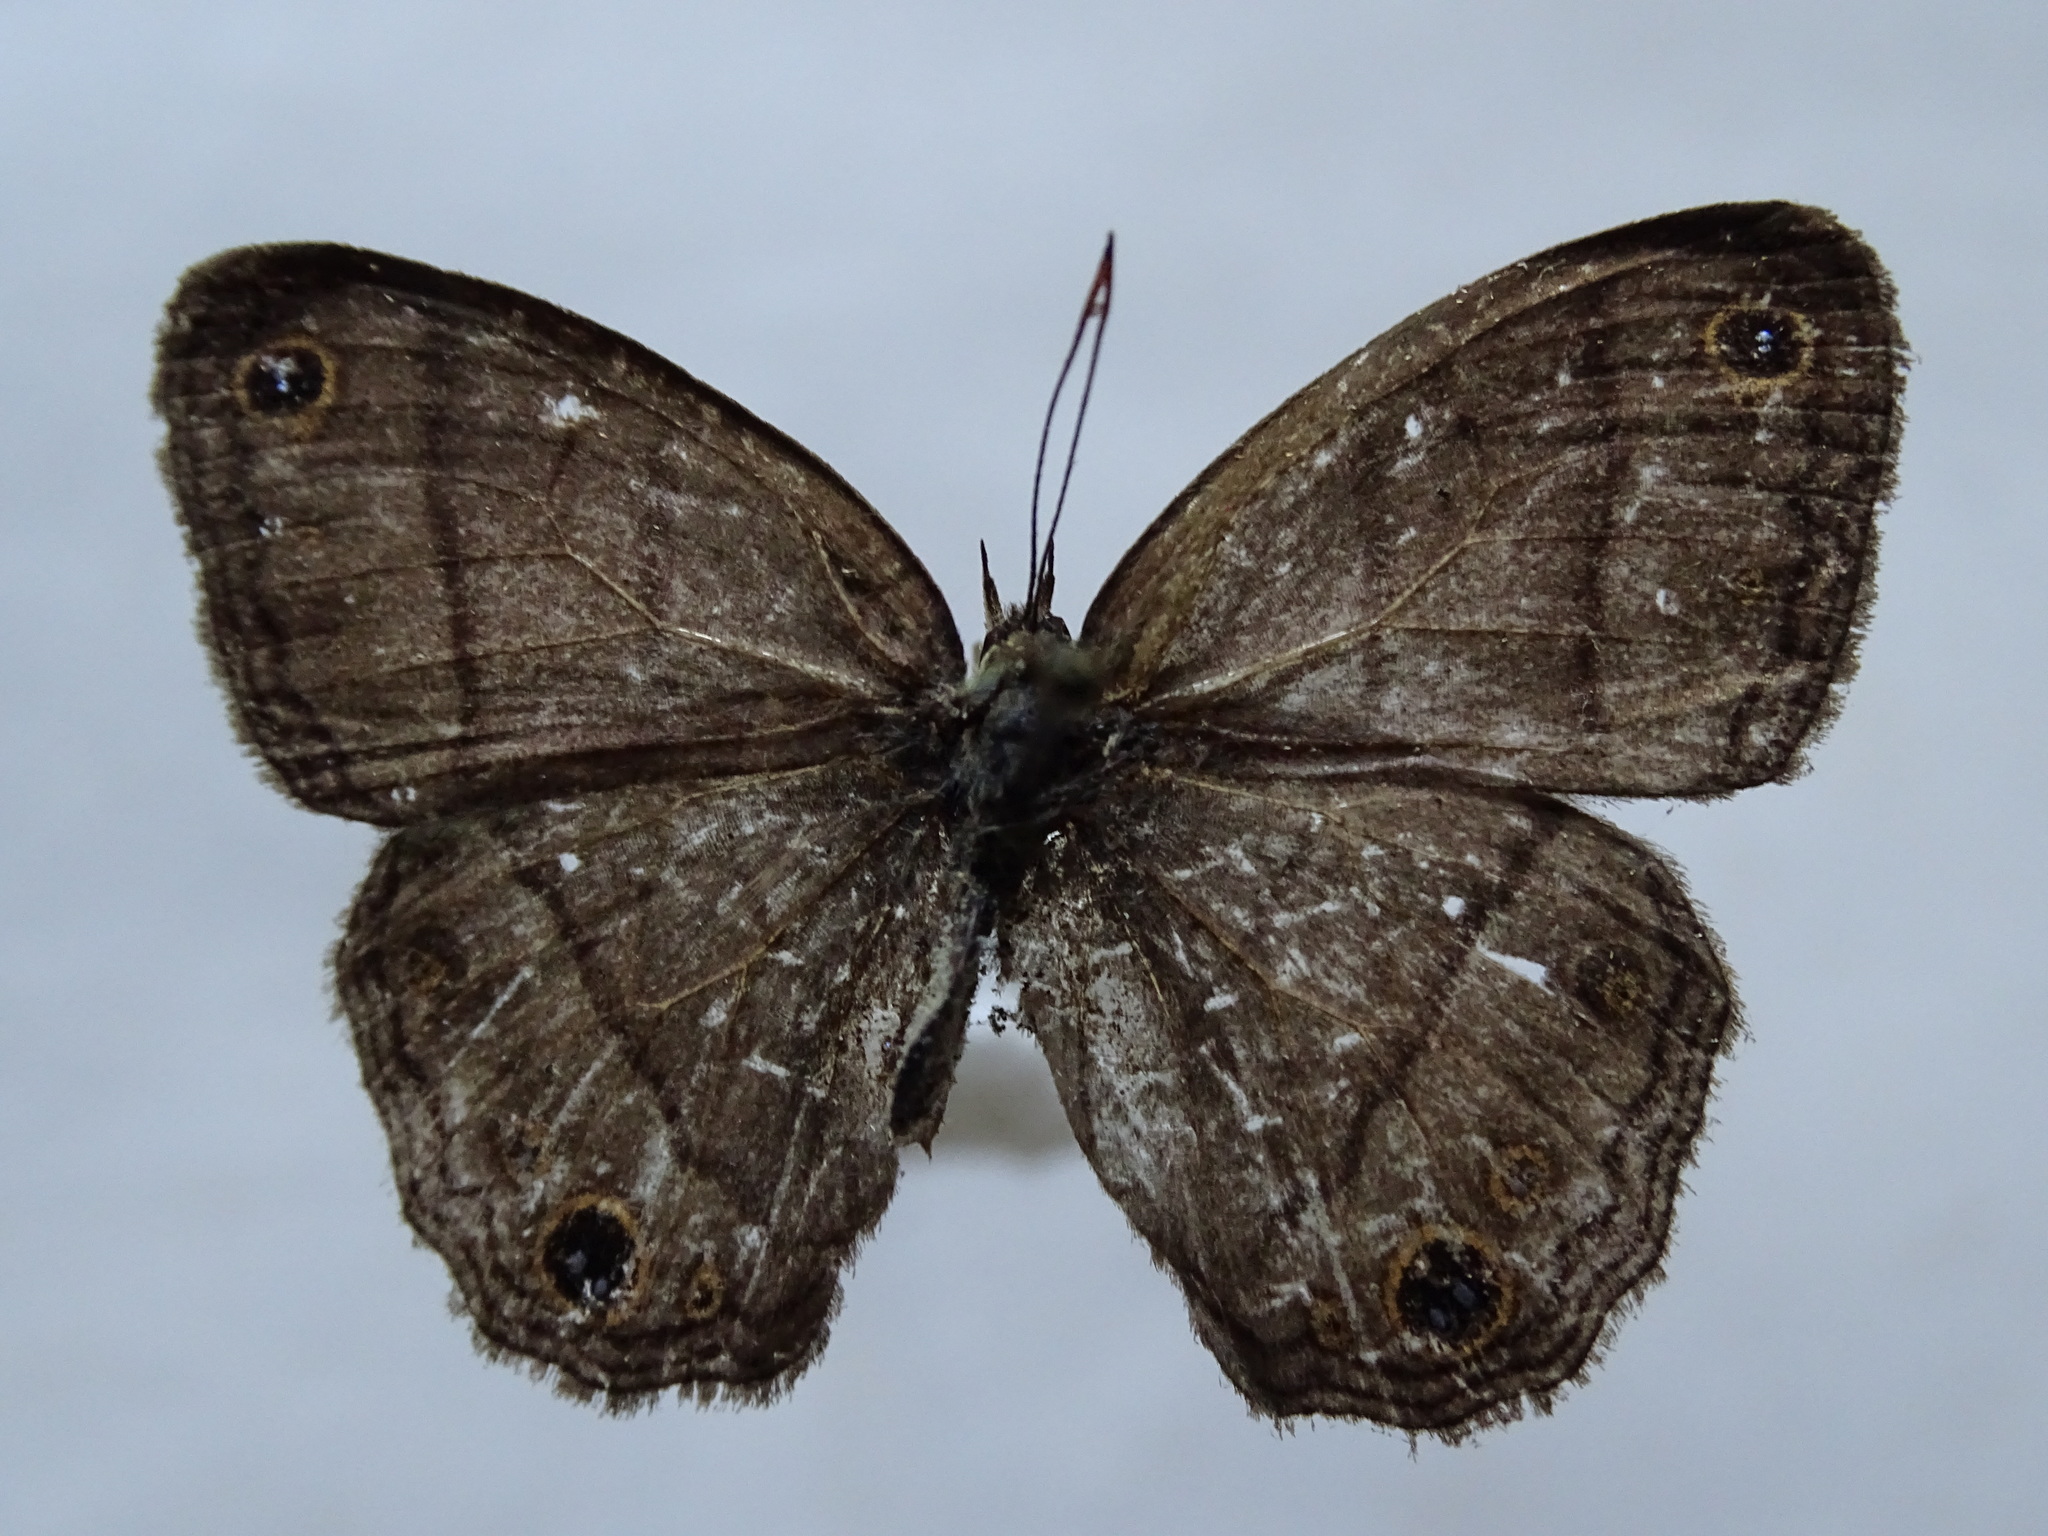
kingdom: Animalia
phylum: Arthropoda
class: Insecta
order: Lepidoptera
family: Nymphalidae
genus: Euptychia
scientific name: Euptychia Cissia pompilia
